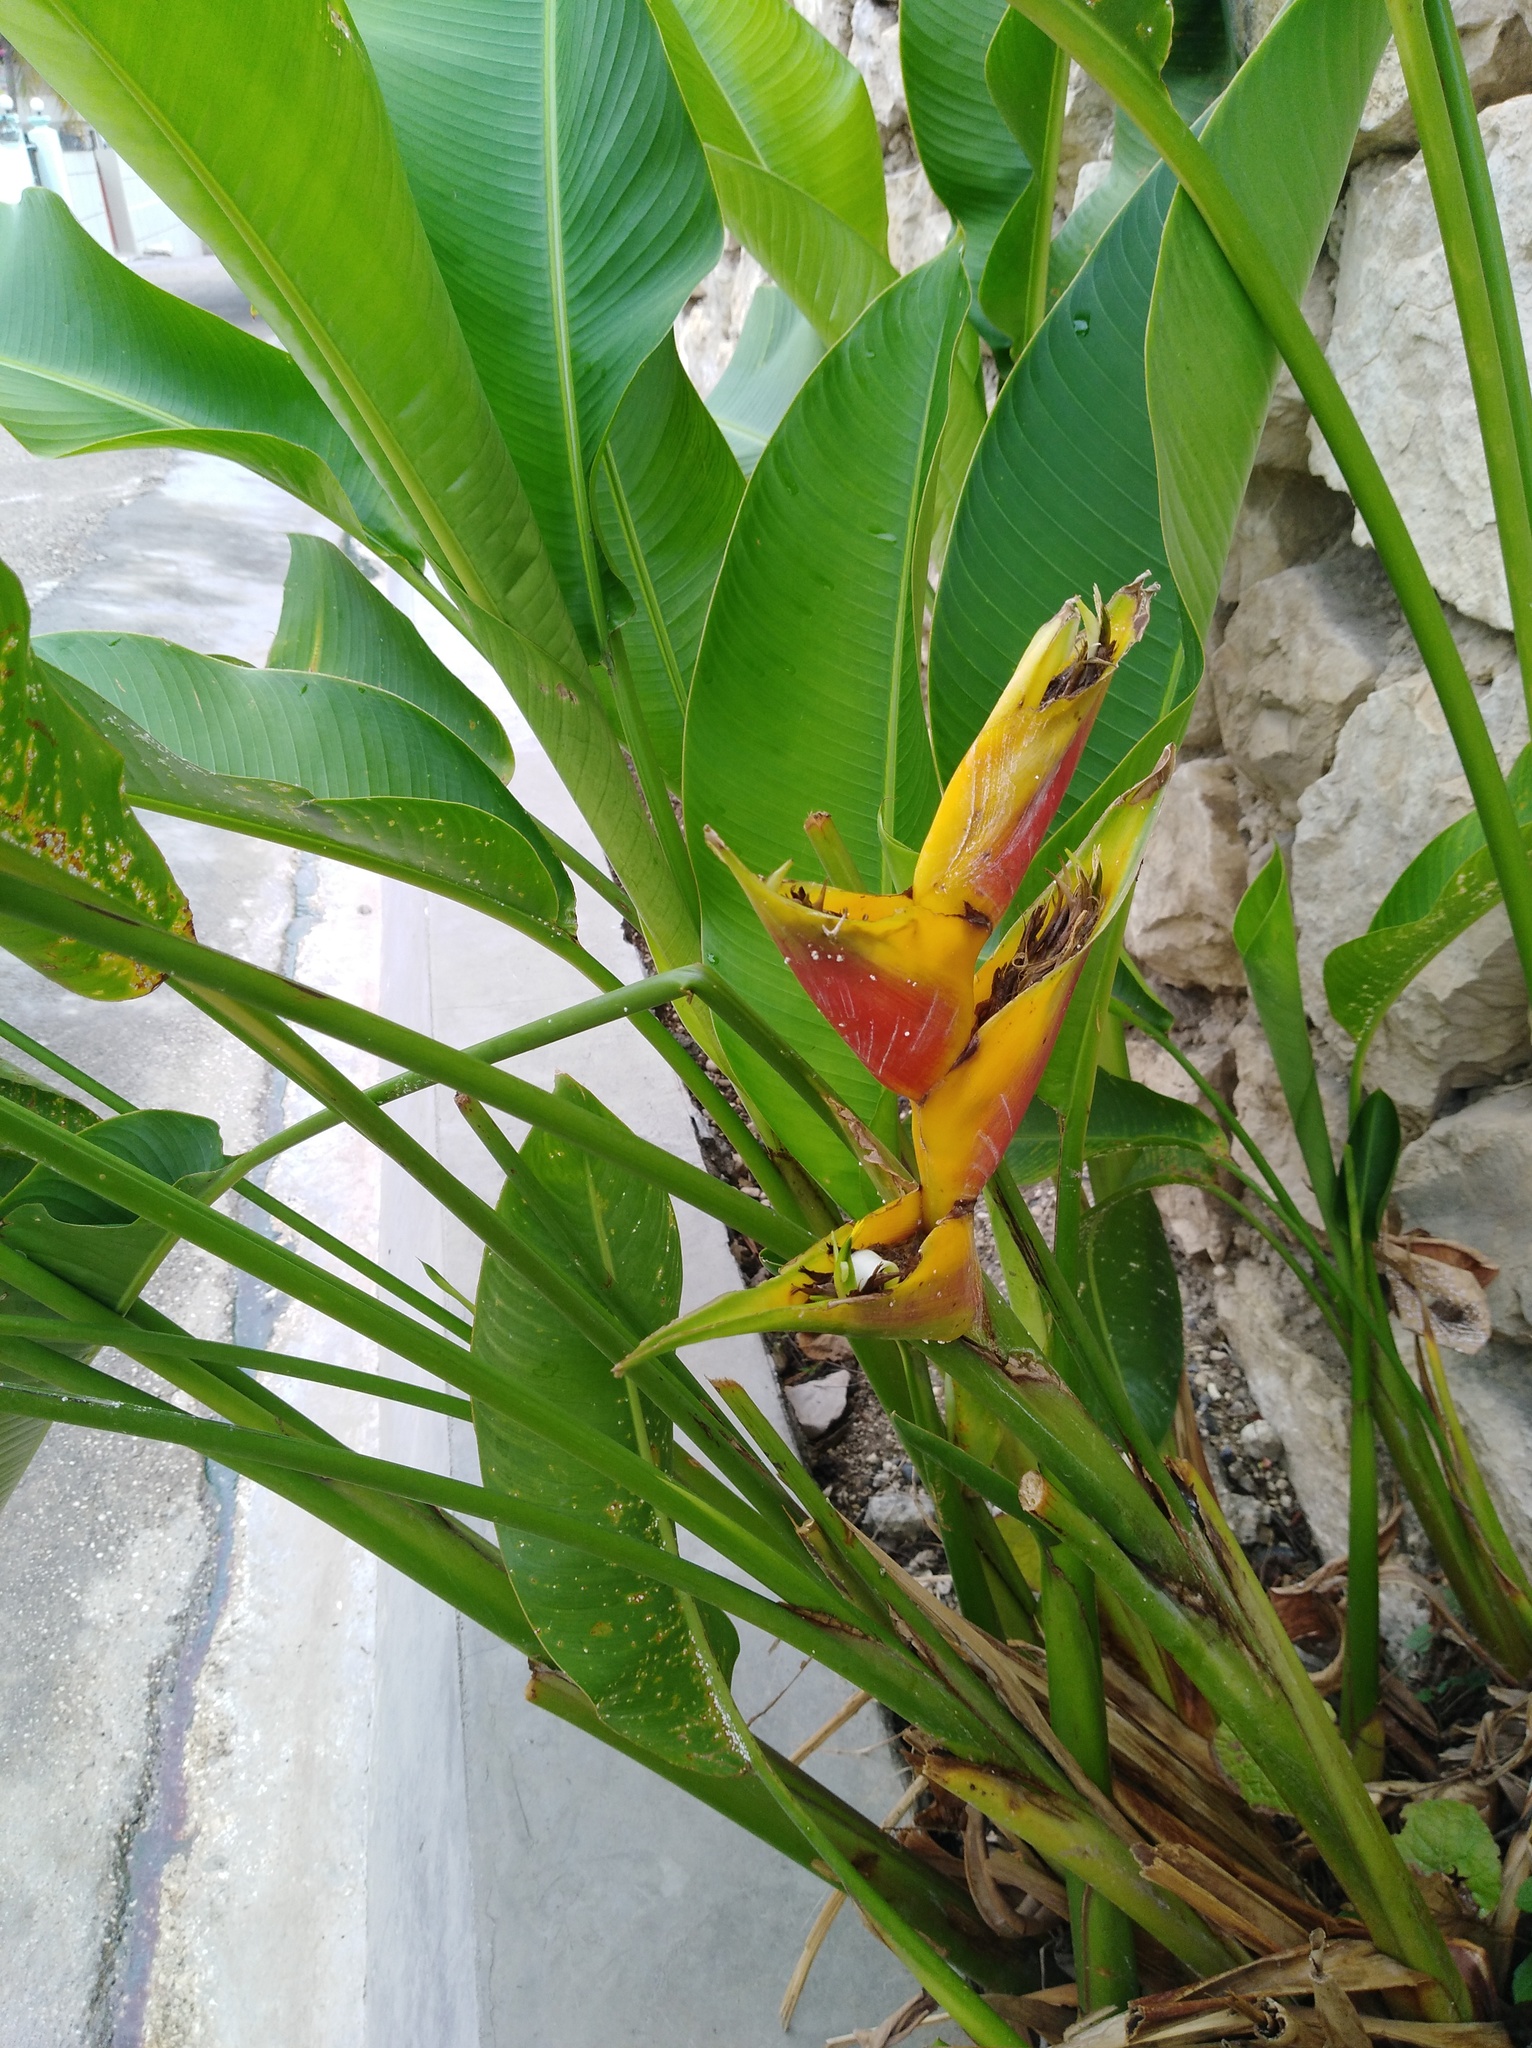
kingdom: Plantae
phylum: Tracheophyta
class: Liliopsida
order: Zingiberales
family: Heliconiaceae
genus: Heliconia
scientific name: Heliconia bihai
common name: Macaw flower
